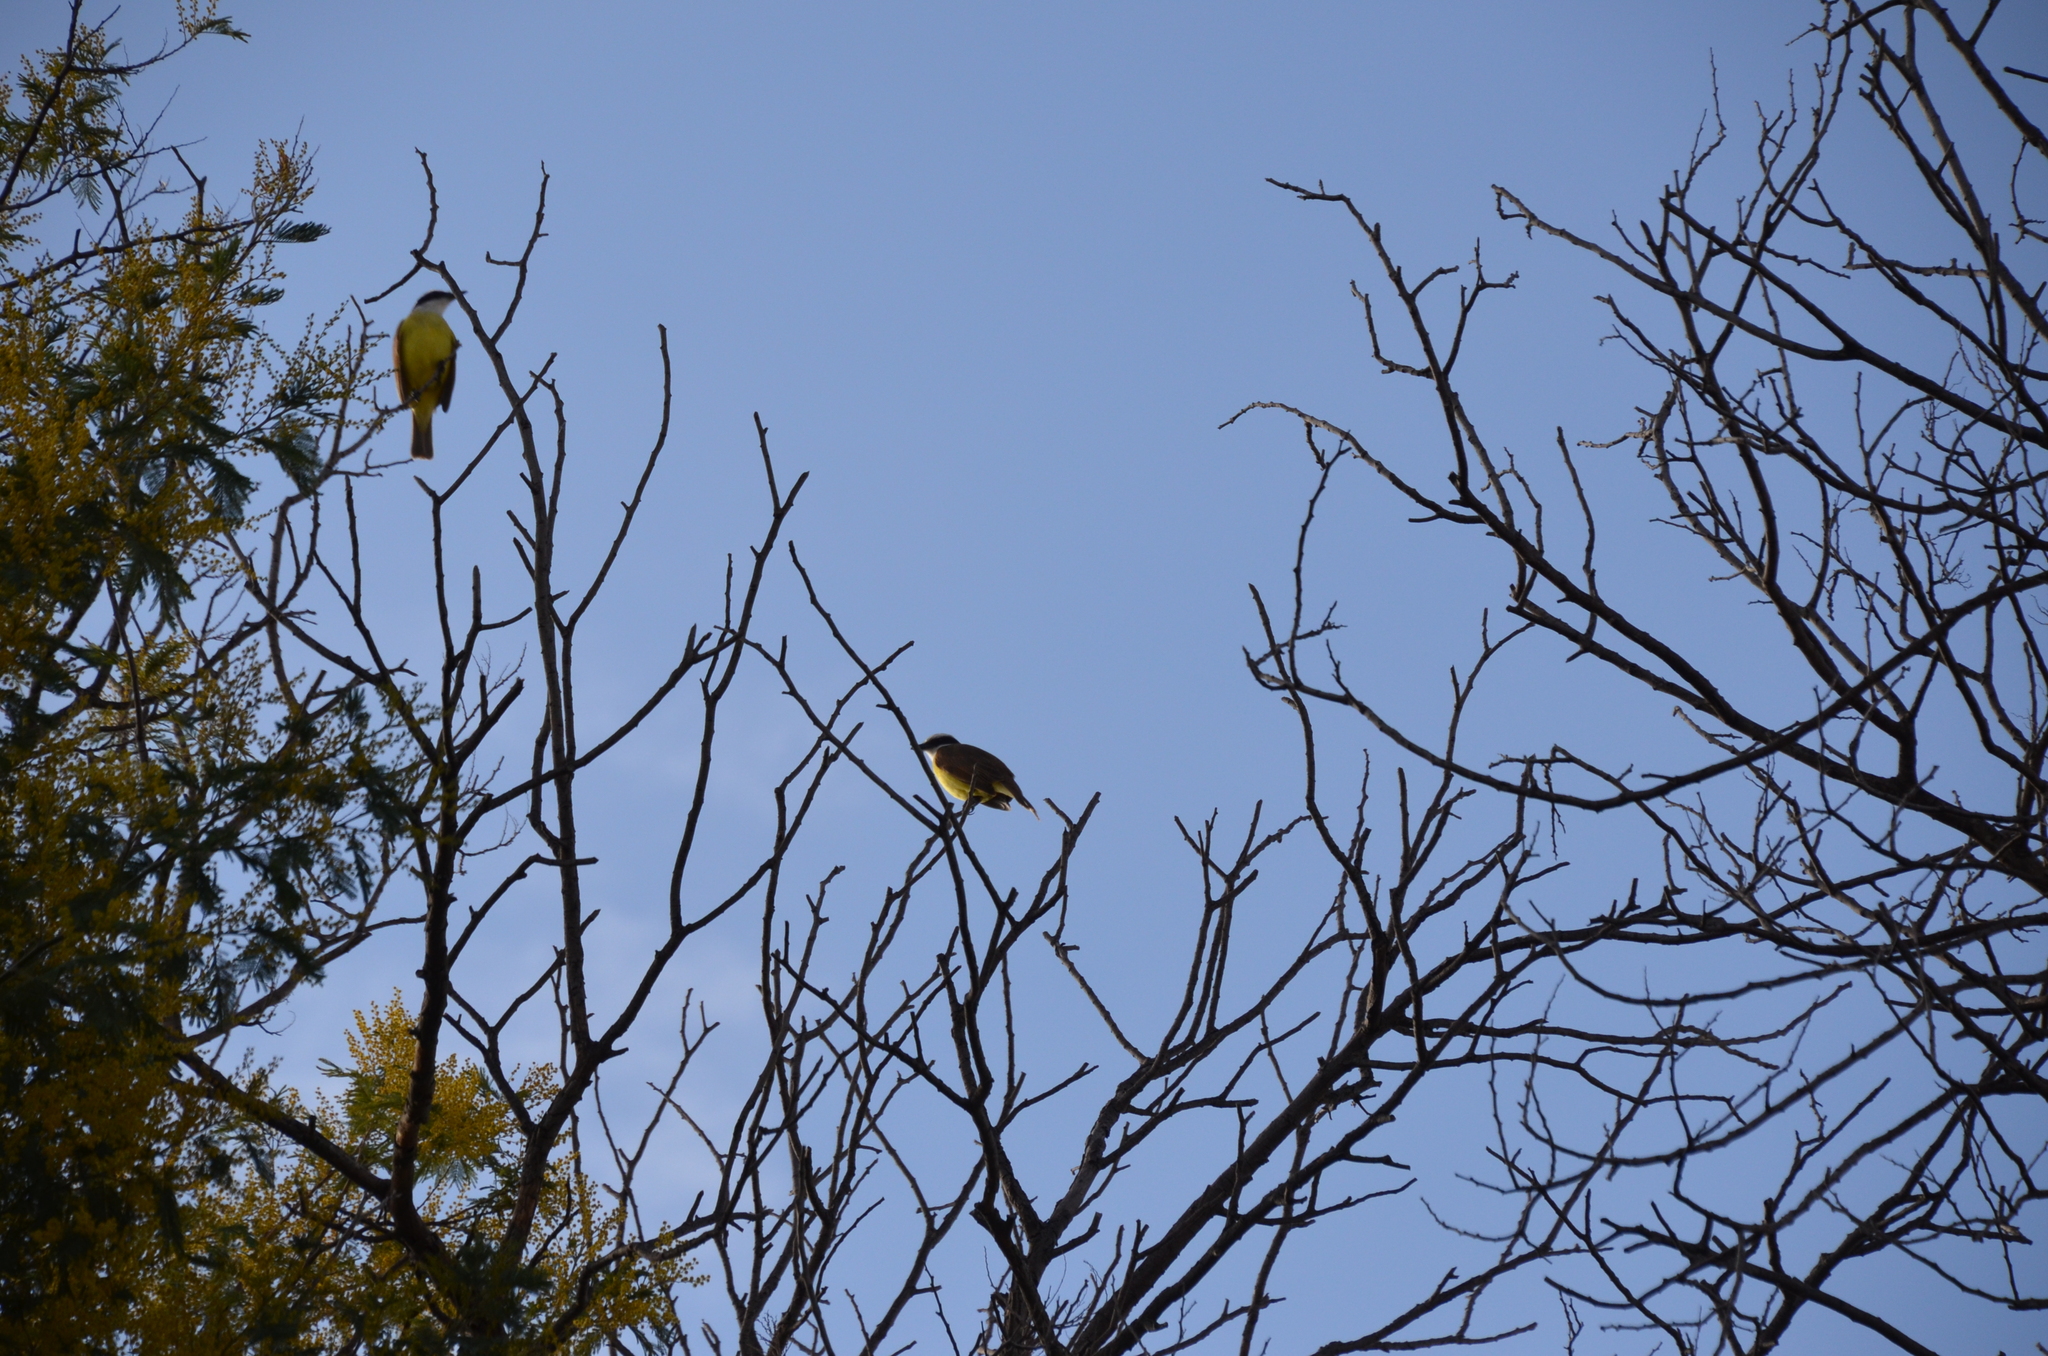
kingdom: Animalia
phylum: Chordata
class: Aves
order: Passeriformes
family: Tyrannidae
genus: Pitangus
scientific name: Pitangus sulphuratus
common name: Great kiskadee
